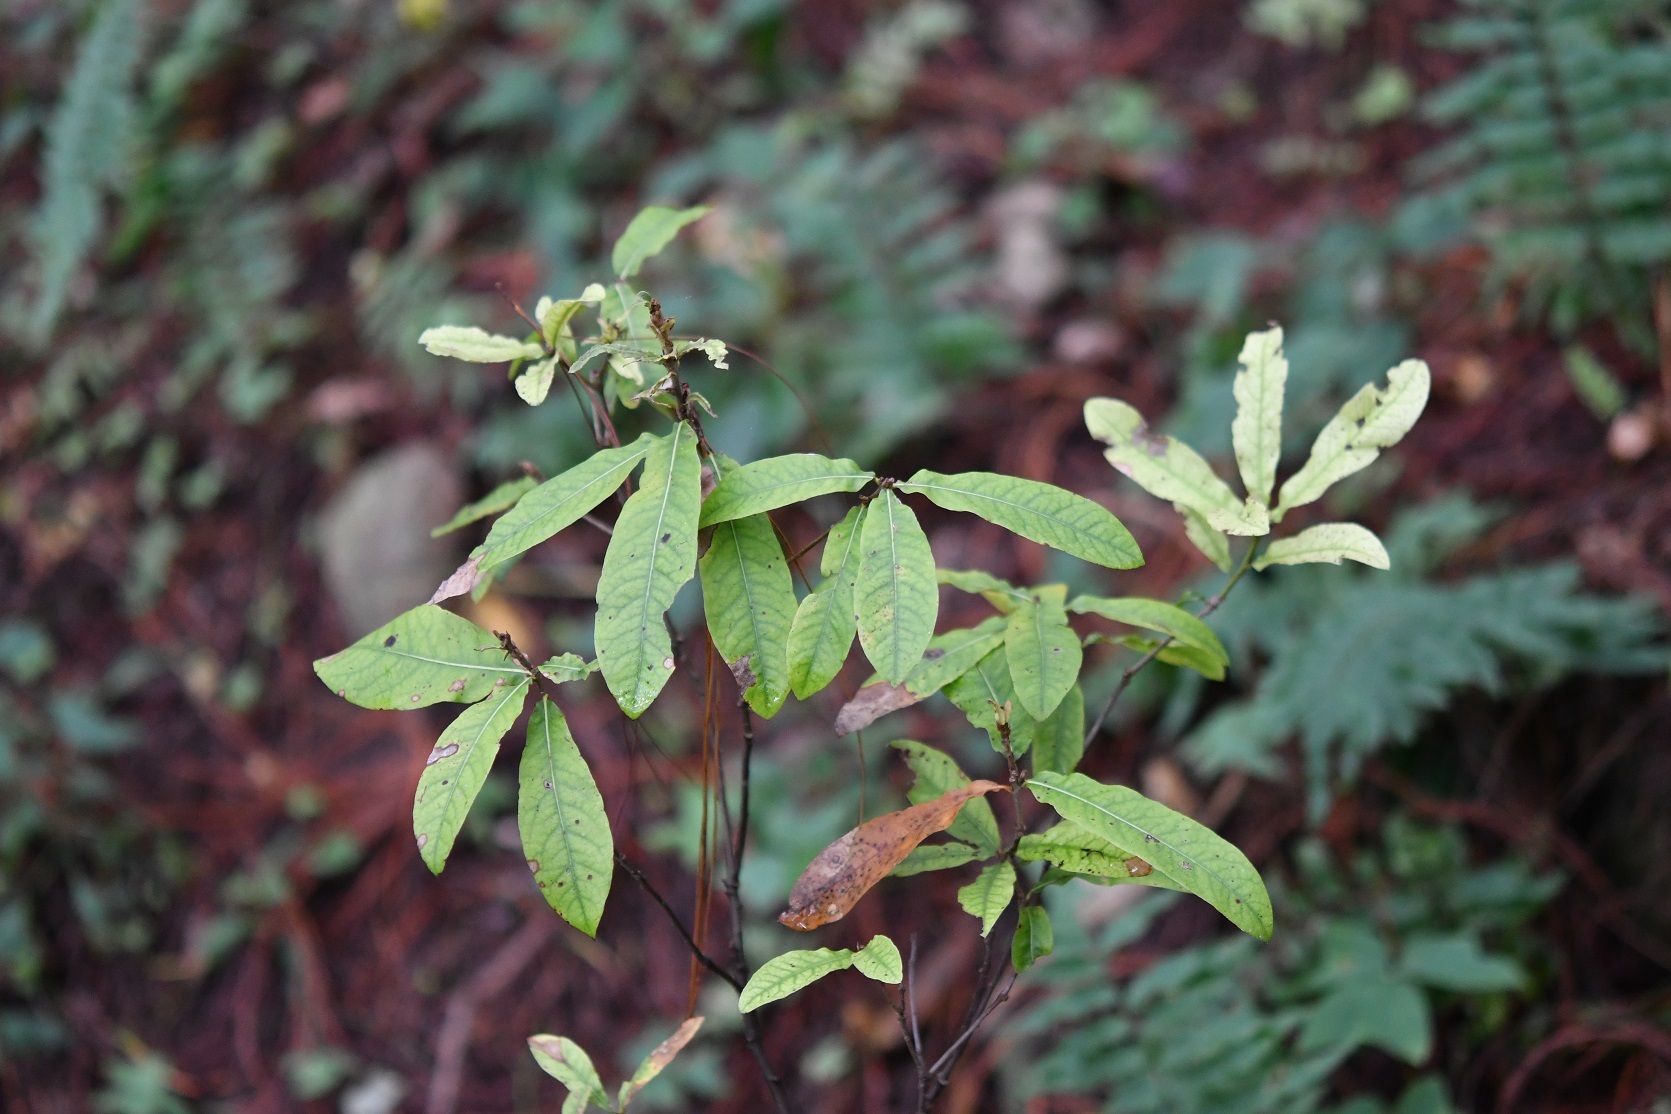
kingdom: Plantae
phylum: Tracheophyta
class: Magnoliopsida
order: Fagales
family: Fagaceae
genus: Quercus
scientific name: Quercus crispipilis
